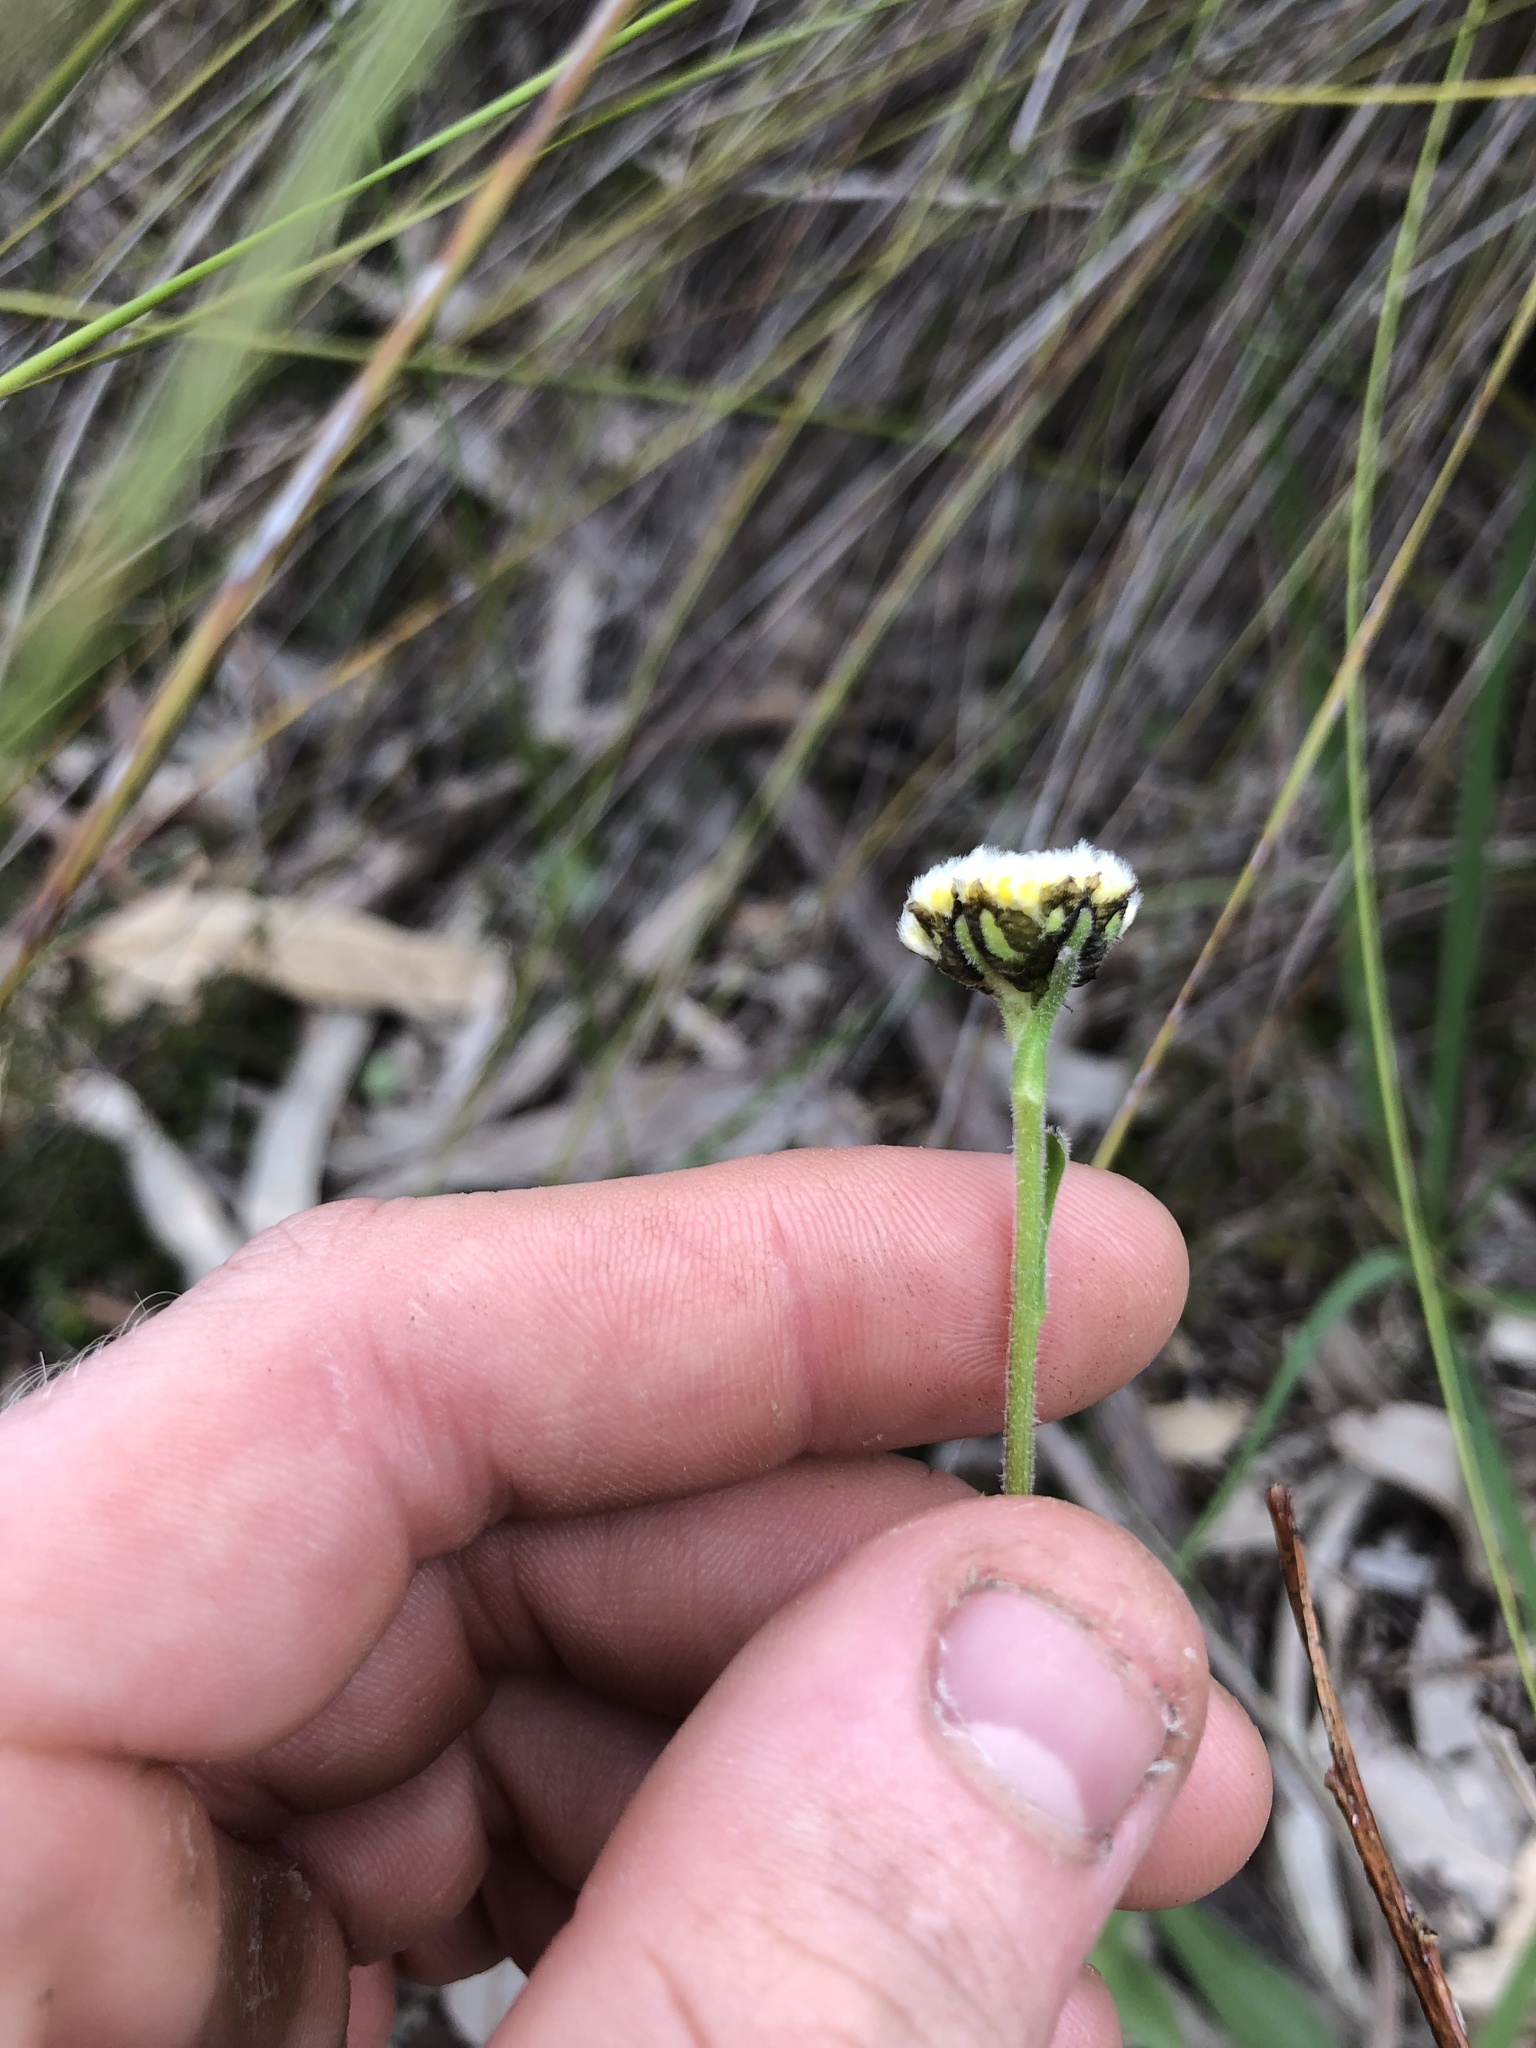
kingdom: Plantae
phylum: Tracheophyta
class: Magnoliopsida
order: Asterales
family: Asteraceae
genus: Craspedia
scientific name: Craspedia variabilis
